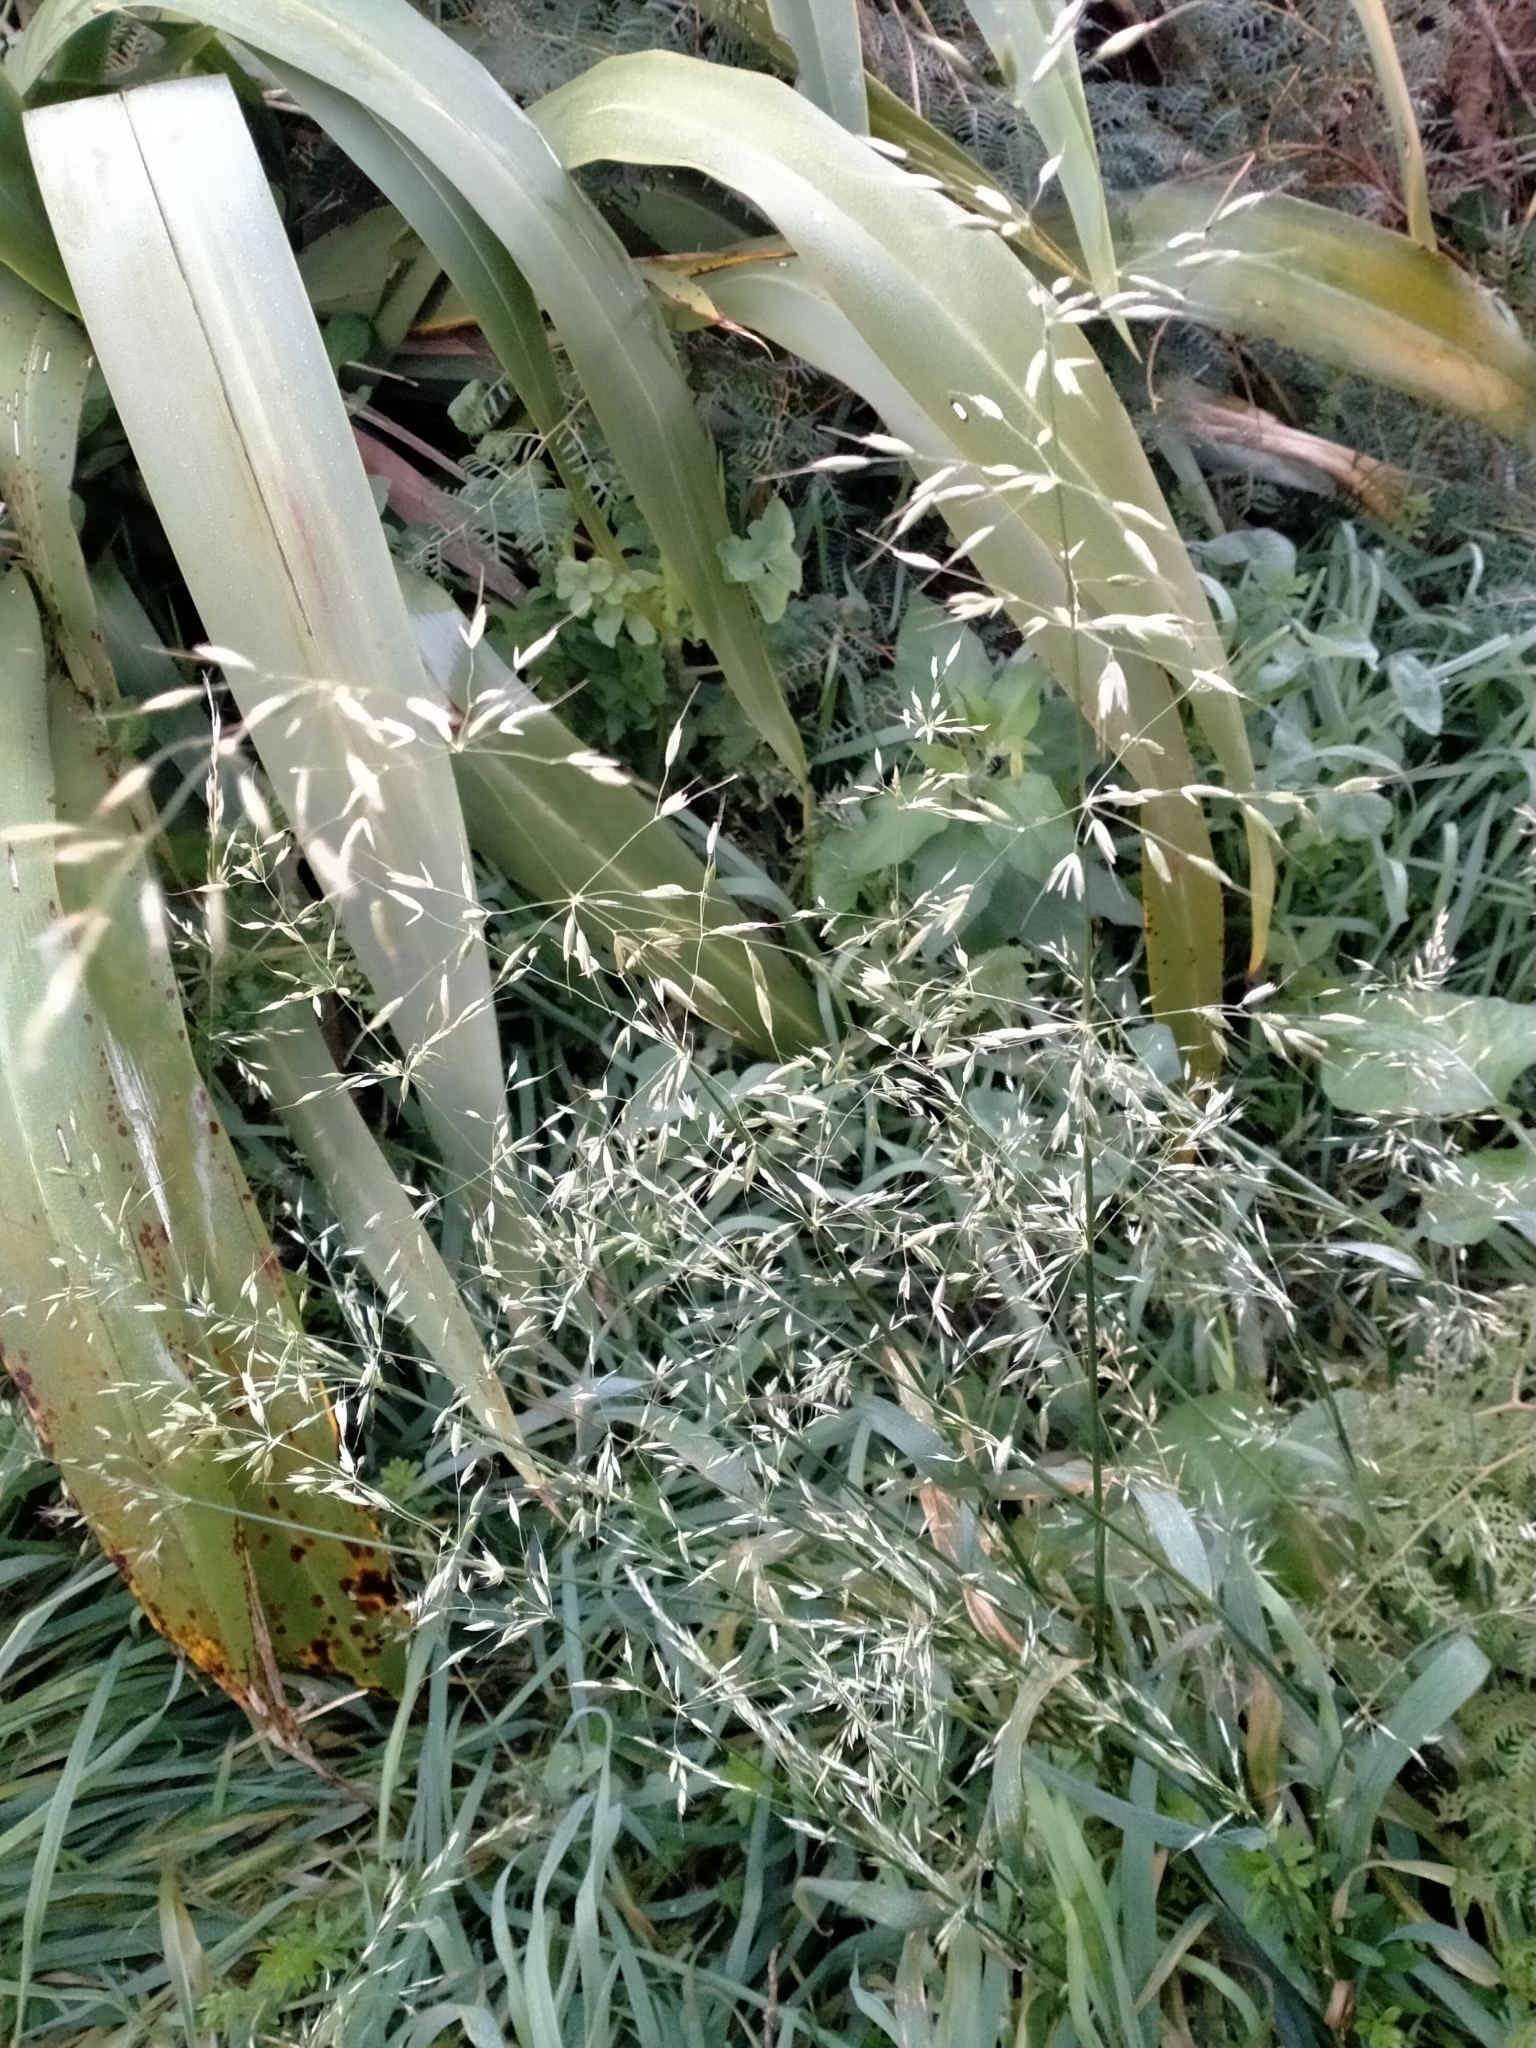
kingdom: Plantae
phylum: Tracheophyta
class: Liliopsida
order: Poales
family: Poaceae
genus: Arrhenatherum
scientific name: Arrhenatherum elatius
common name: Tall oatgrass
